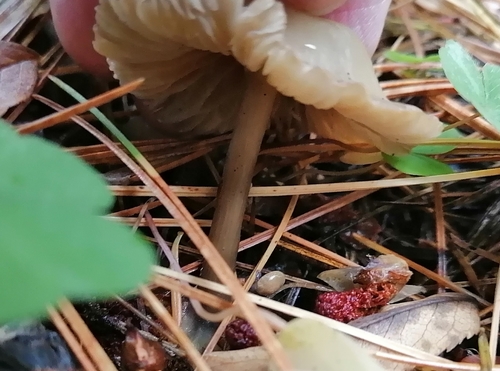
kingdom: Fungi
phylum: Basidiomycota
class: Agaricomycetes
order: Agaricales
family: Mycenaceae
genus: Mycena
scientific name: Mycena pura
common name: Lilac bonnet
